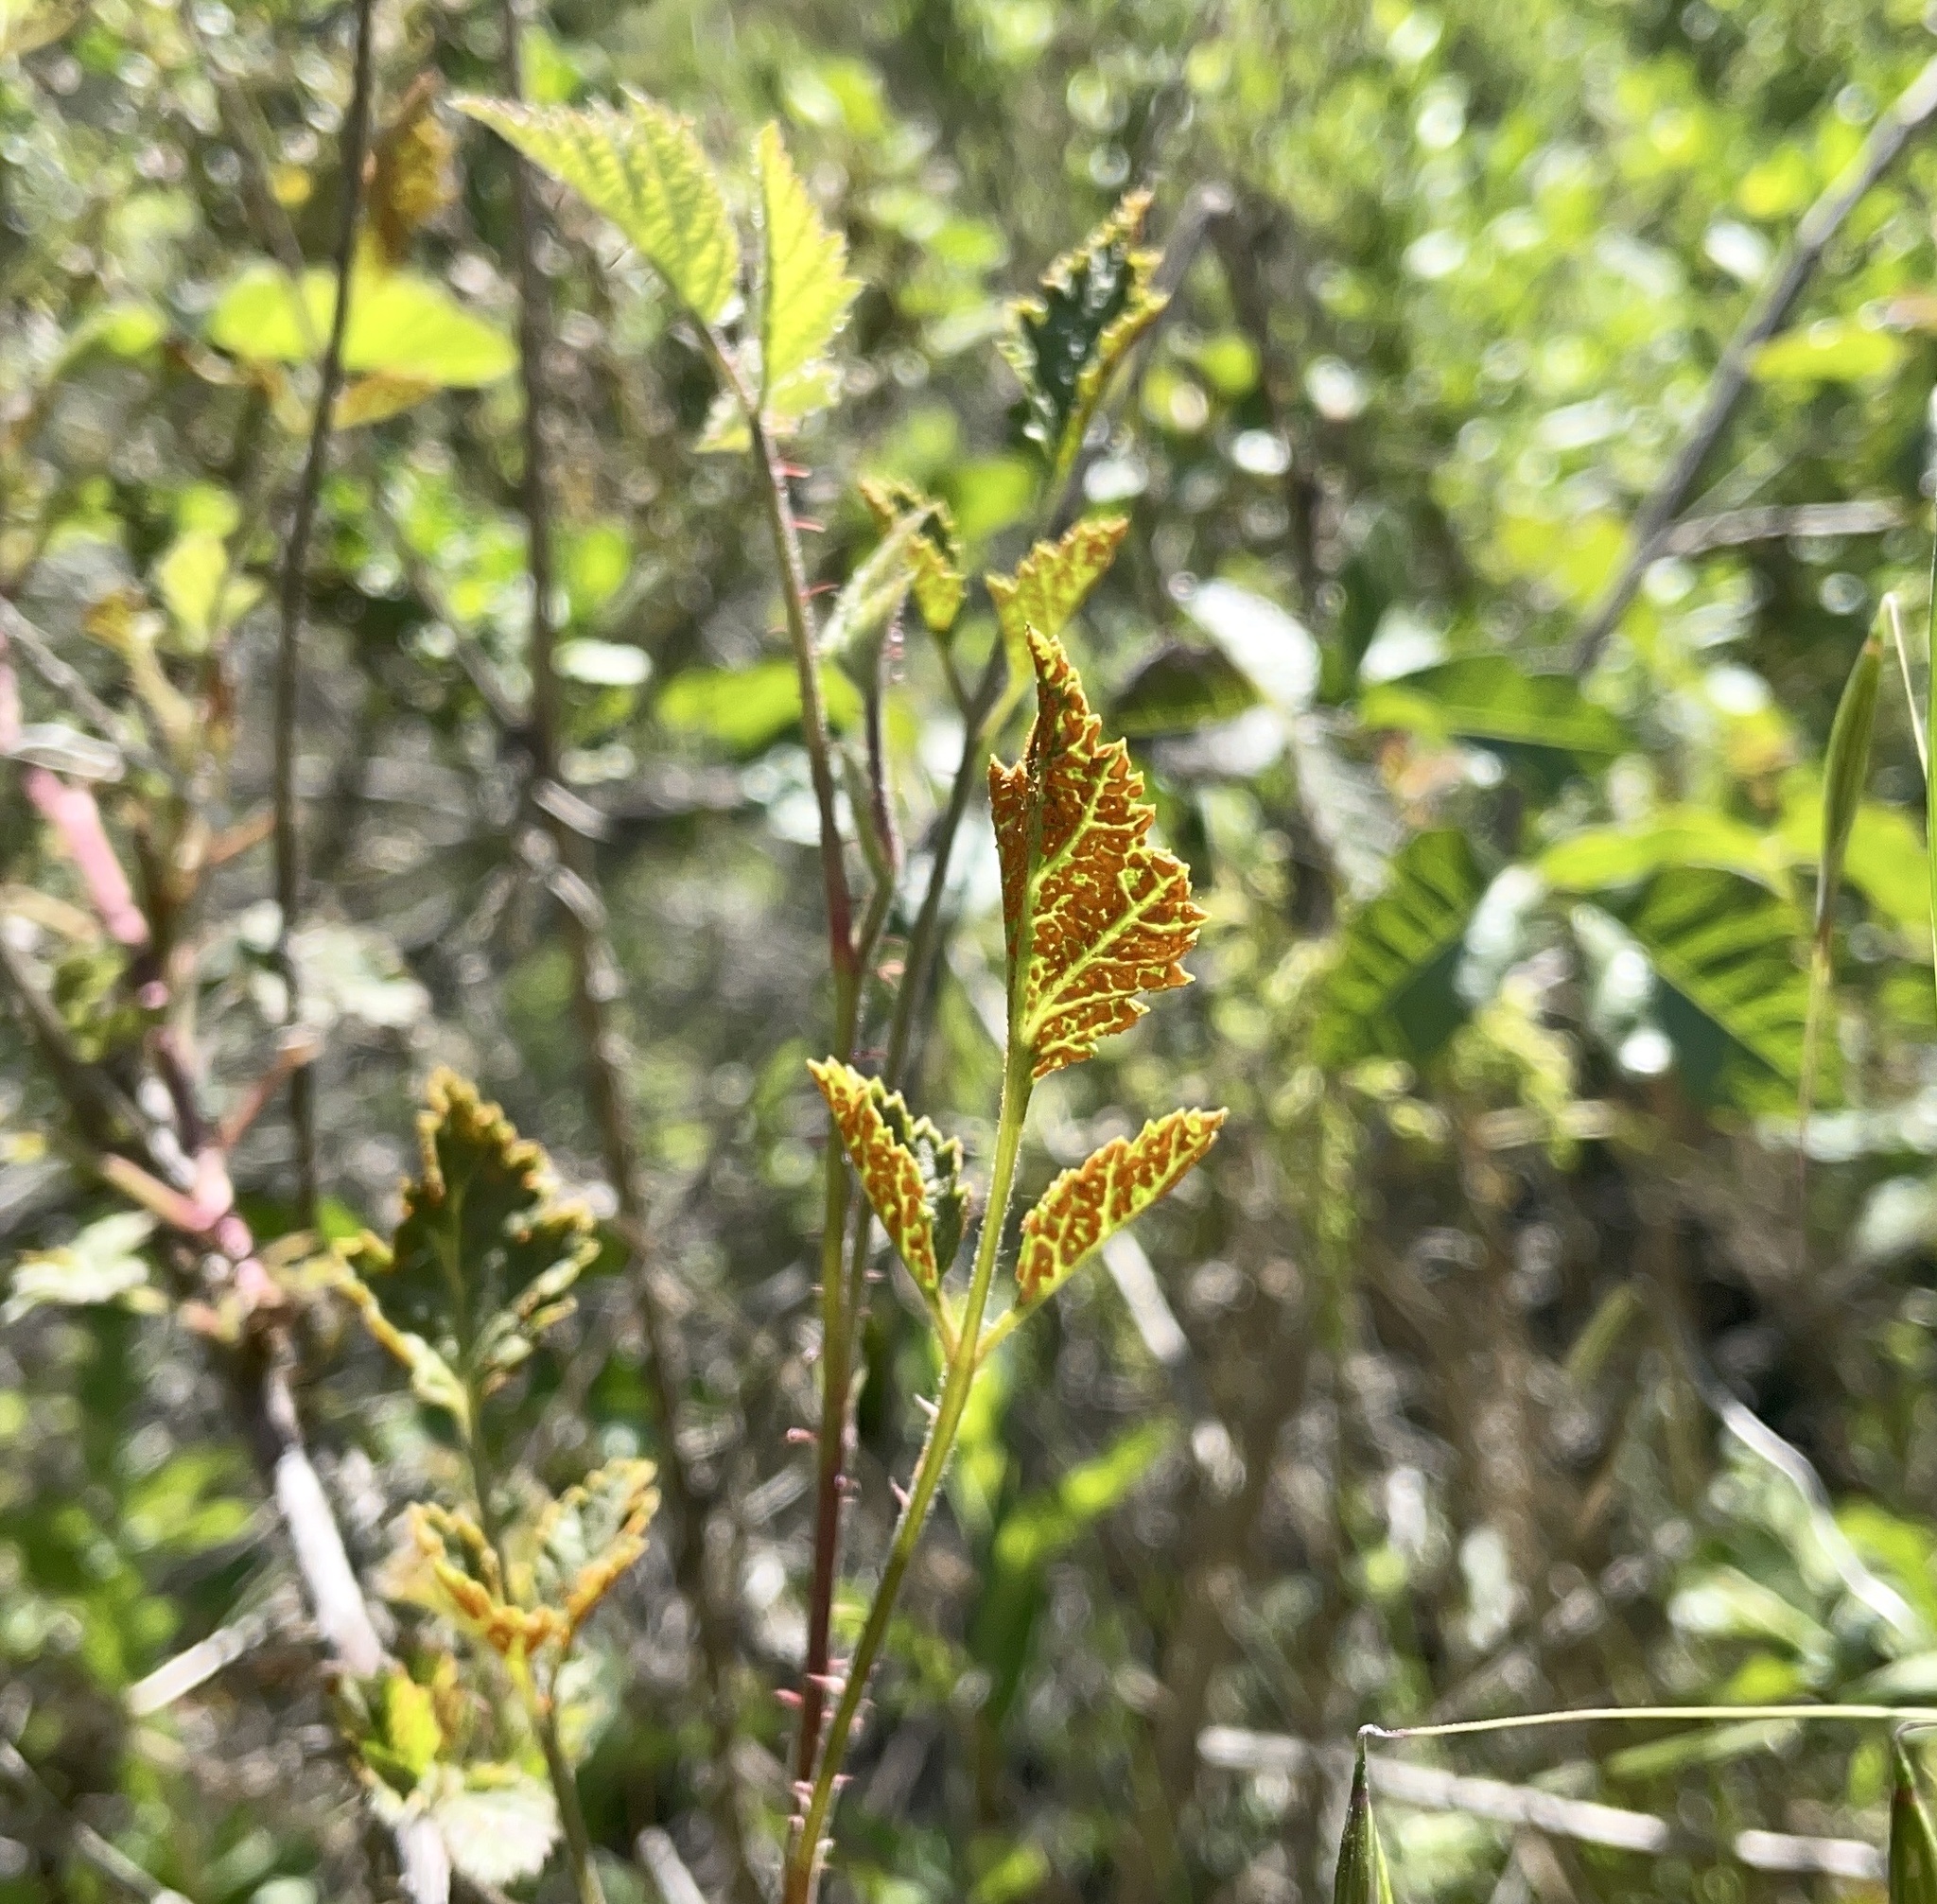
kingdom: Fungi
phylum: Basidiomycota
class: Pucciniomycetes
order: Pucciniales
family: Phragmidiaceae
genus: Arthuriomyces
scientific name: Arthuriomyces peckianus
